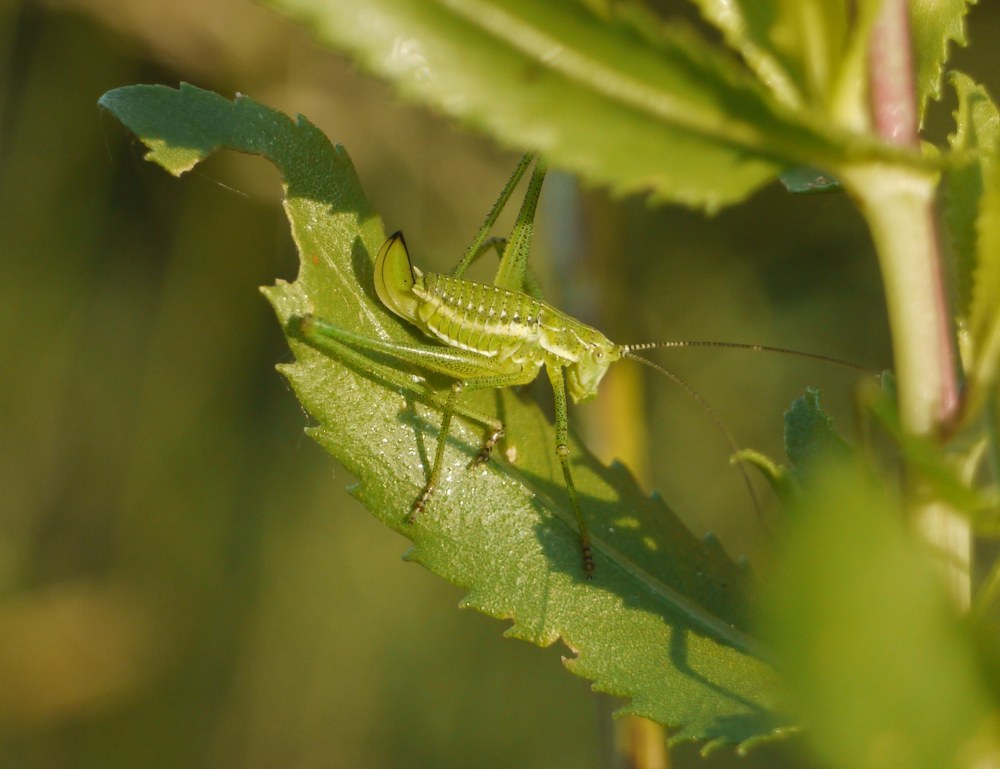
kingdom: Animalia
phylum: Arthropoda
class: Insecta
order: Orthoptera
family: Tettigoniidae
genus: Leptophyes
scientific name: Leptophyes albovittata
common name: Striped bush-cricket
